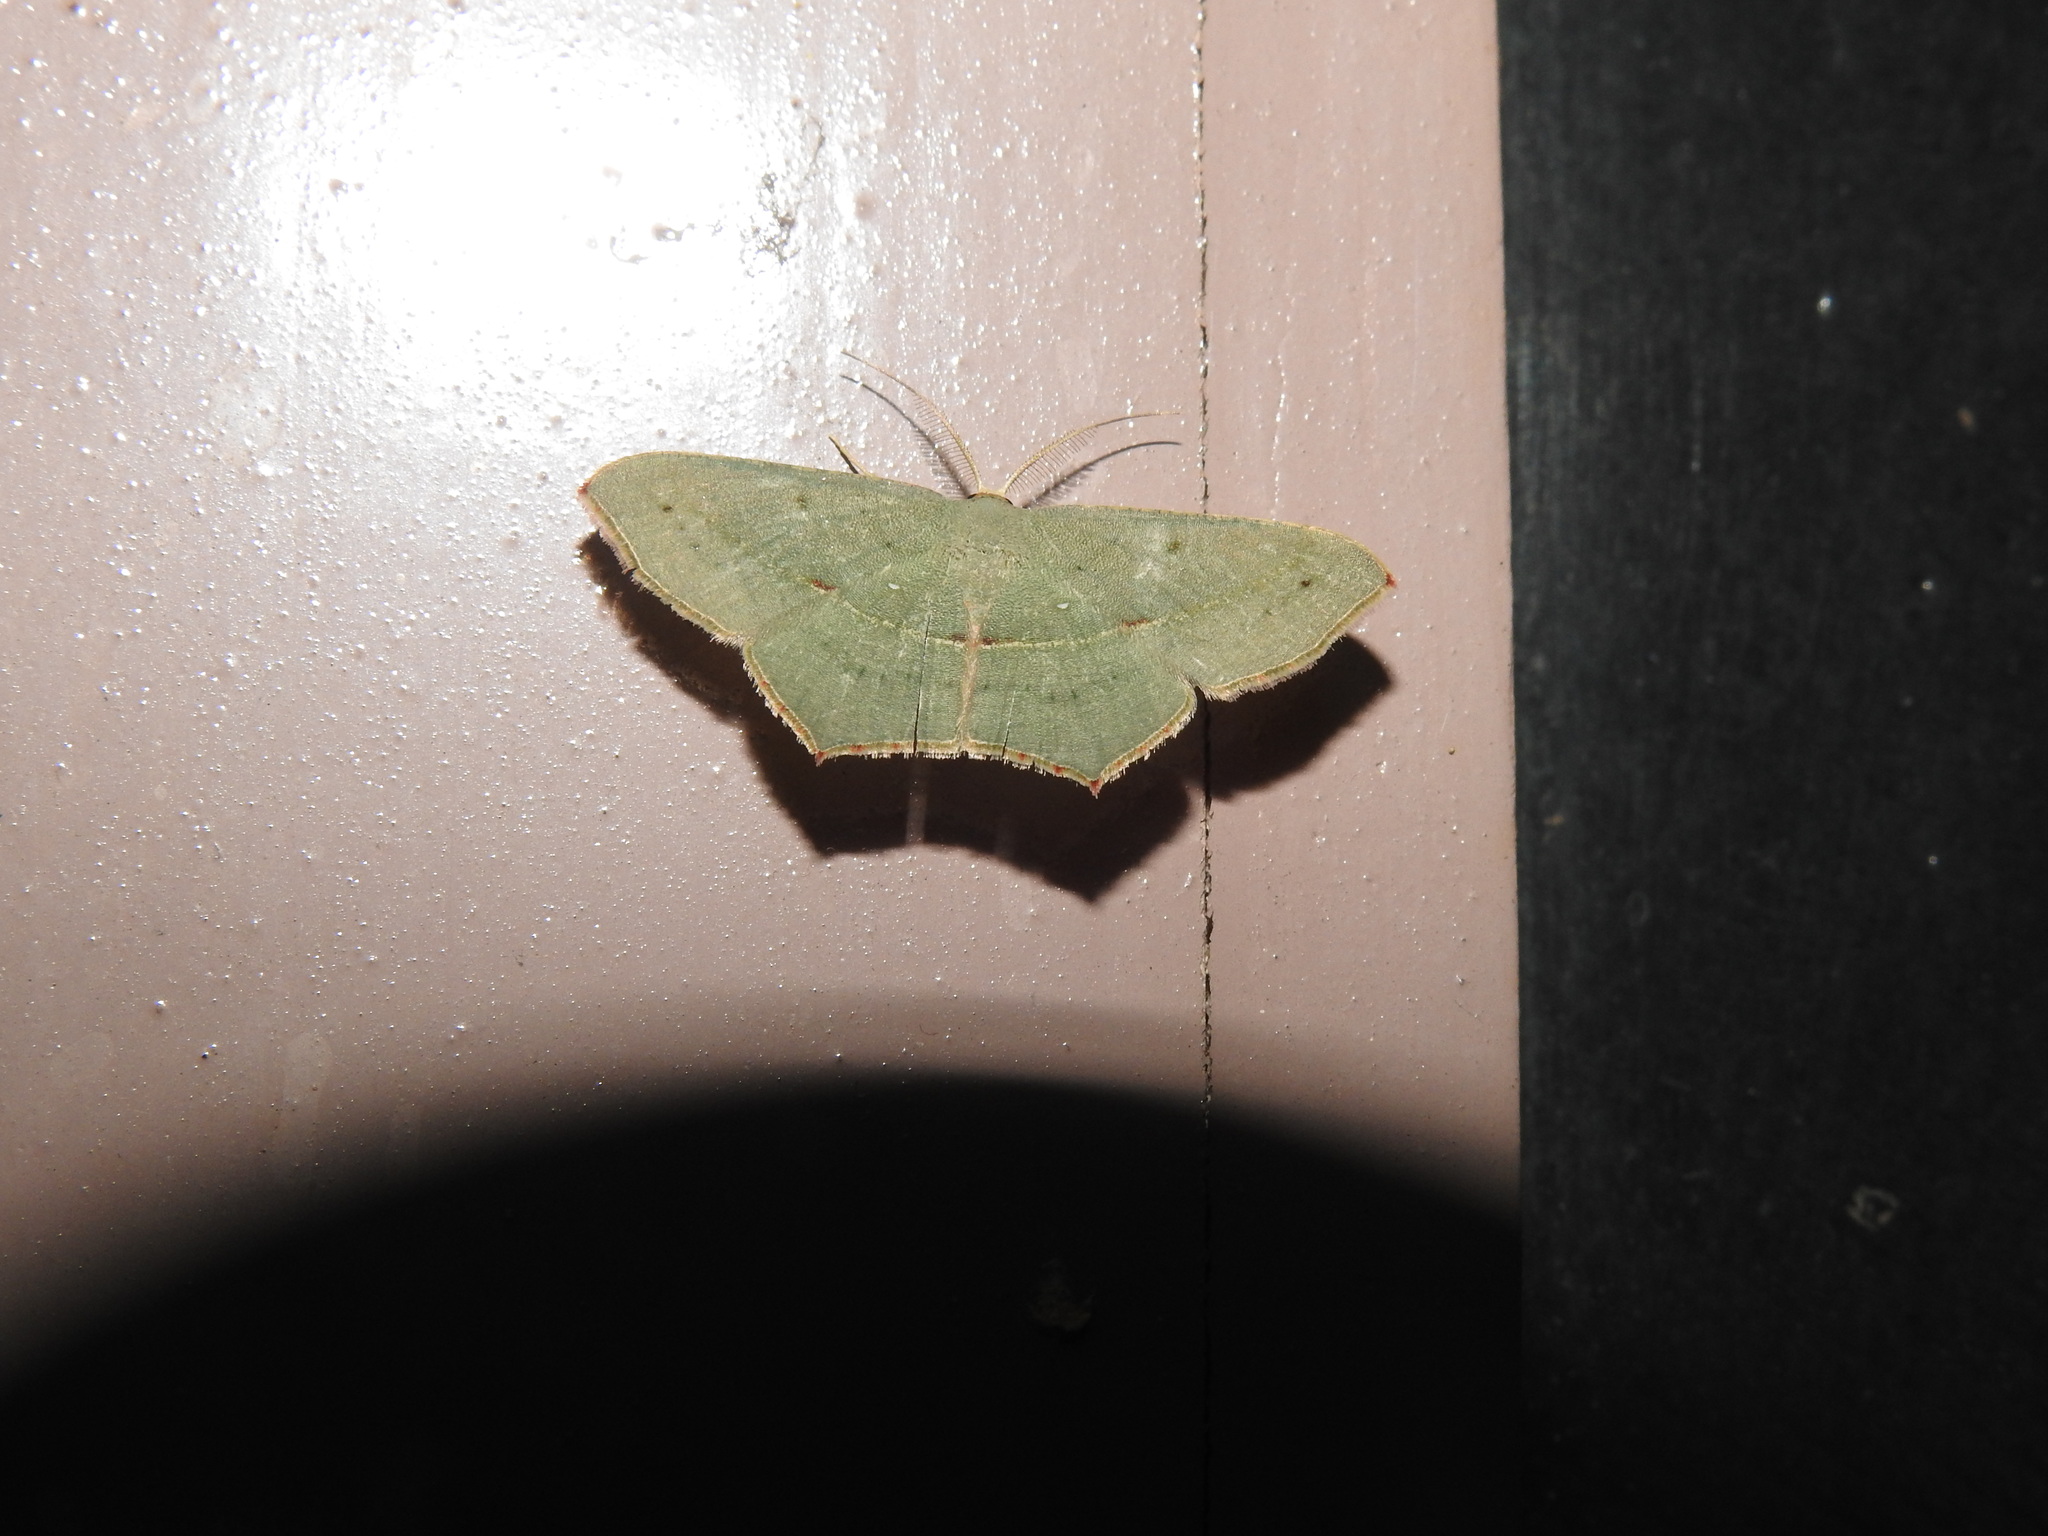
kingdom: Animalia
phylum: Arthropoda
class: Insecta
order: Lepidoptera
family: Geometridae
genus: Traminda
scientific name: Traminda mundissima
